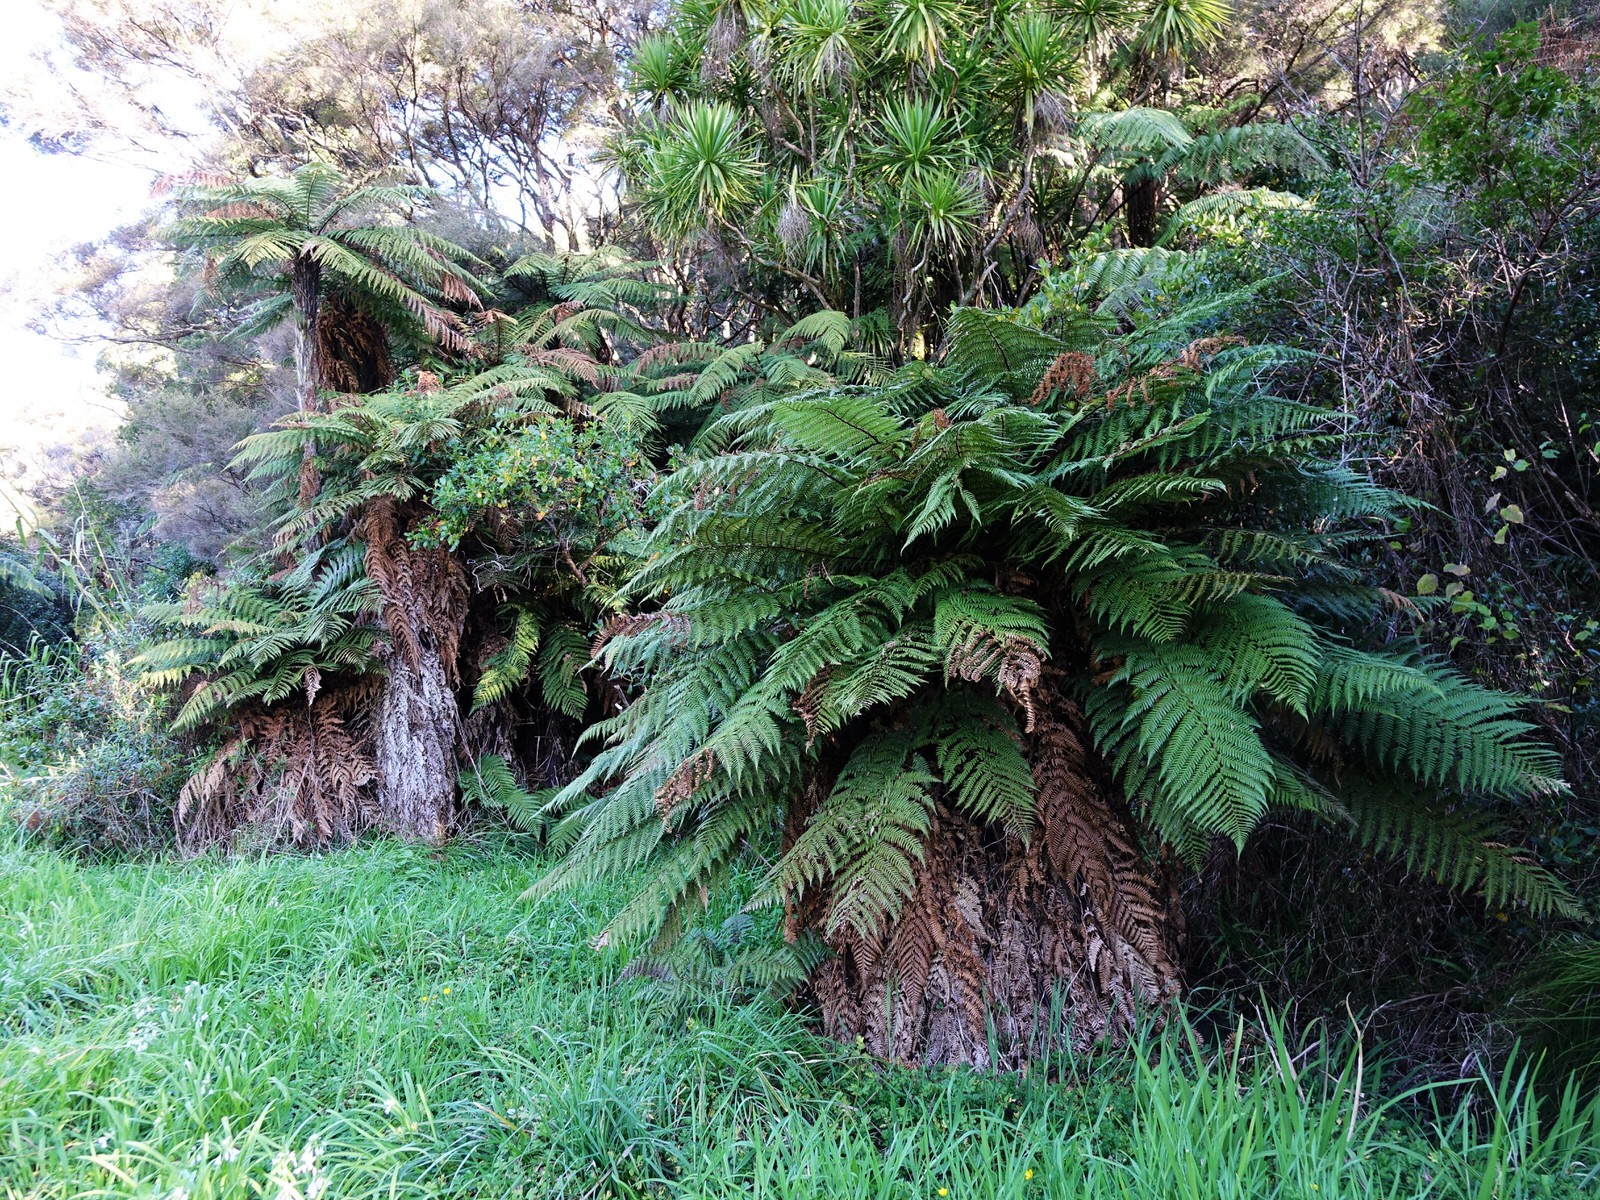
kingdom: Plantae
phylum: Tracheophyta
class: Polypodiopsida
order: Cyatheales
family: Dicksoniaceae
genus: Dicksonia
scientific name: Dicksonia squarrosa
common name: Hard treefern
